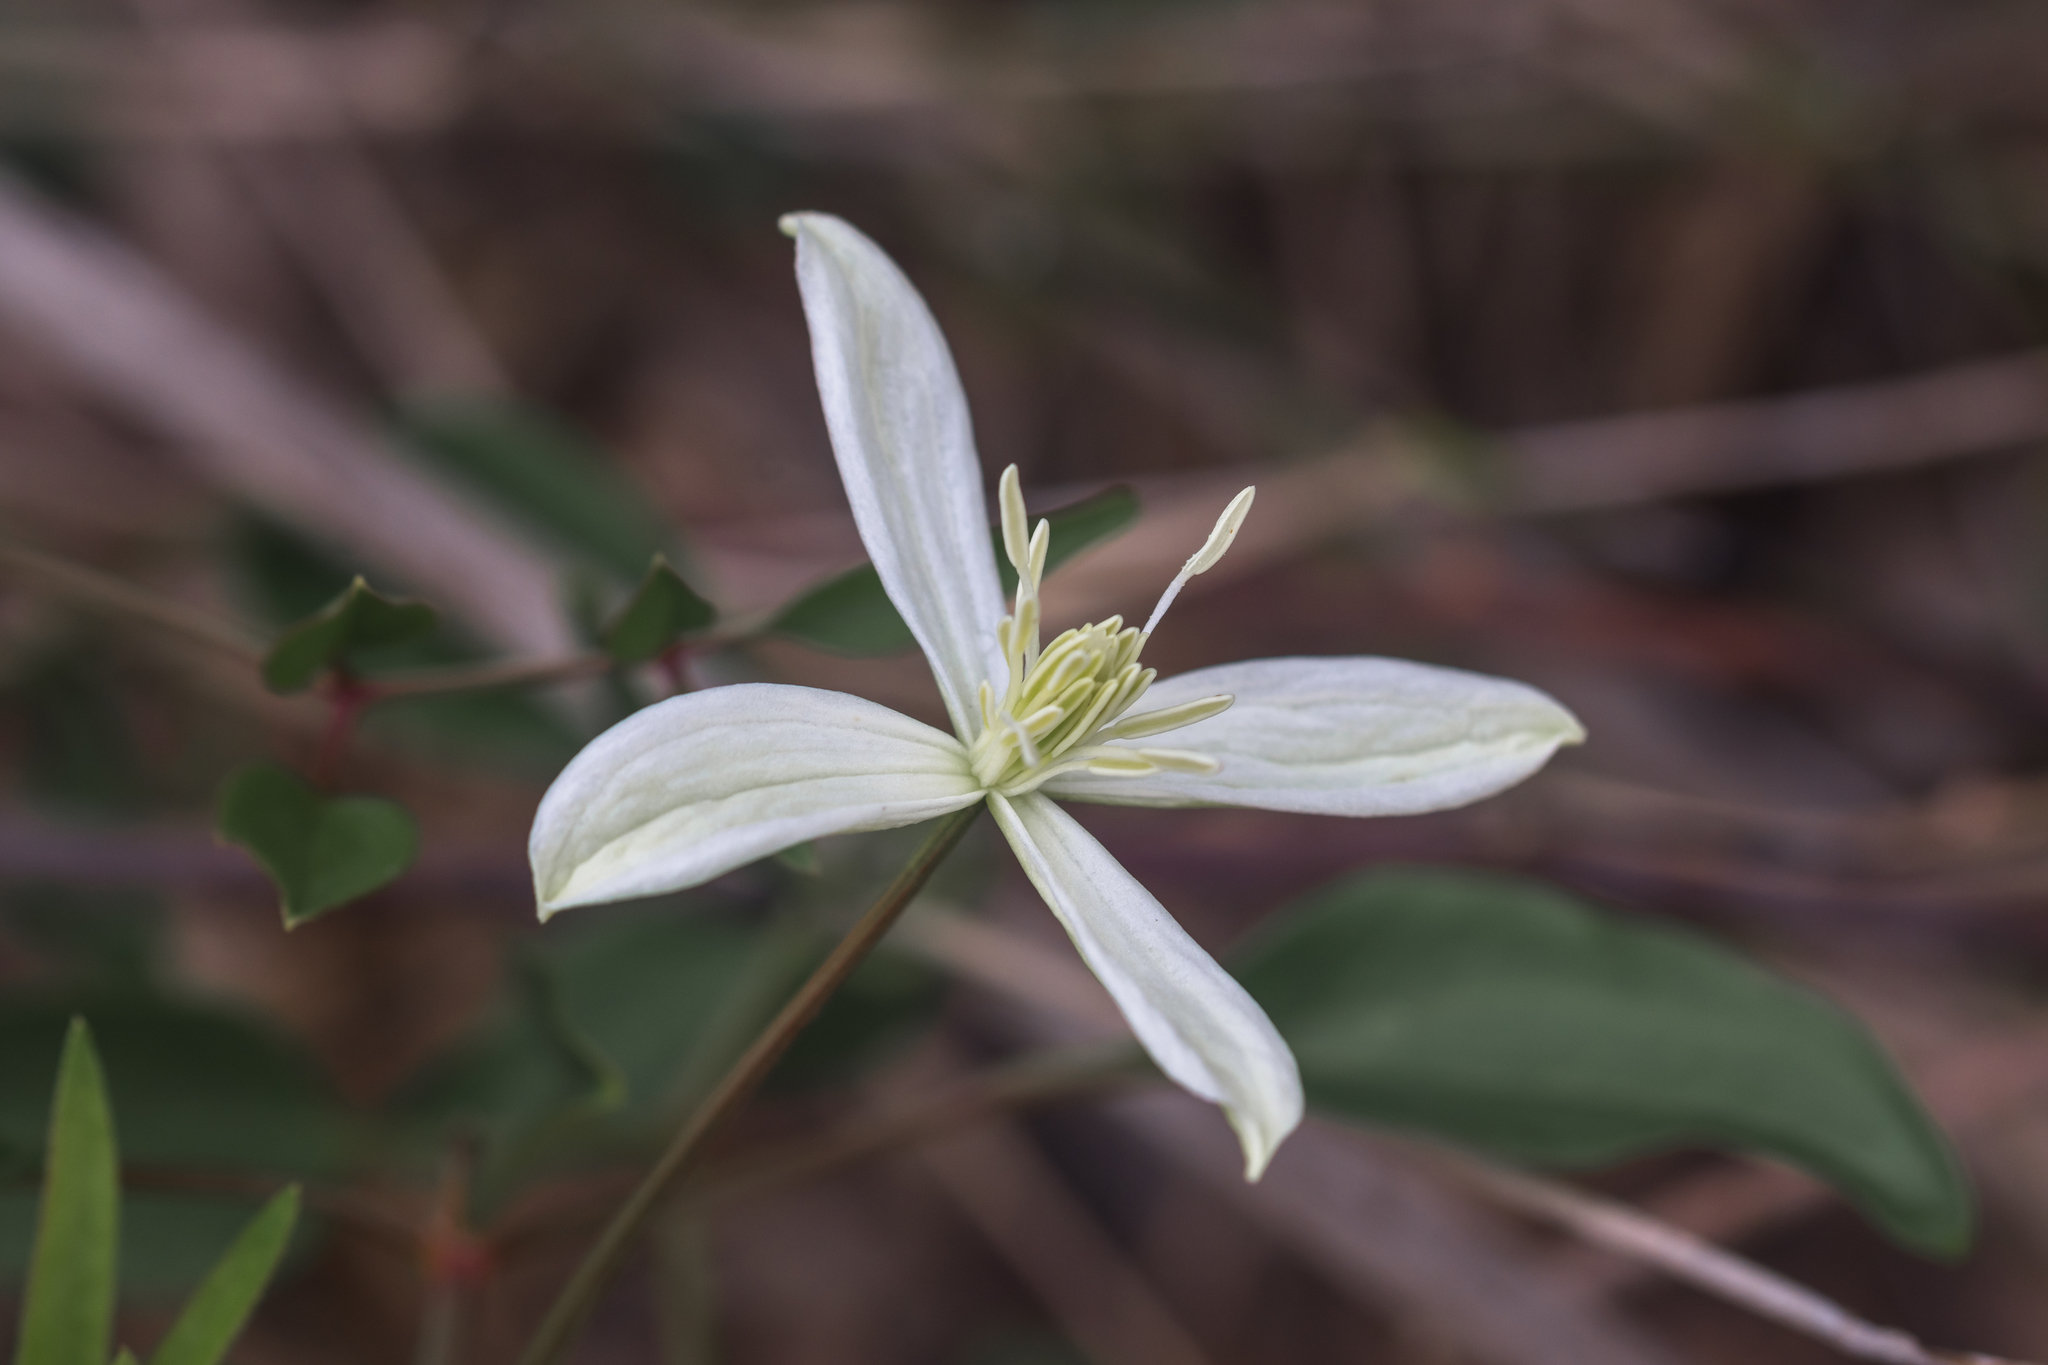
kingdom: Plantae
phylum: Tracheophyta
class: Magnoliopsida
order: Ranunculales
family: Ranunculaceae
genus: Clematis
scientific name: Clematis flammula
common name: Virgin's-bower
